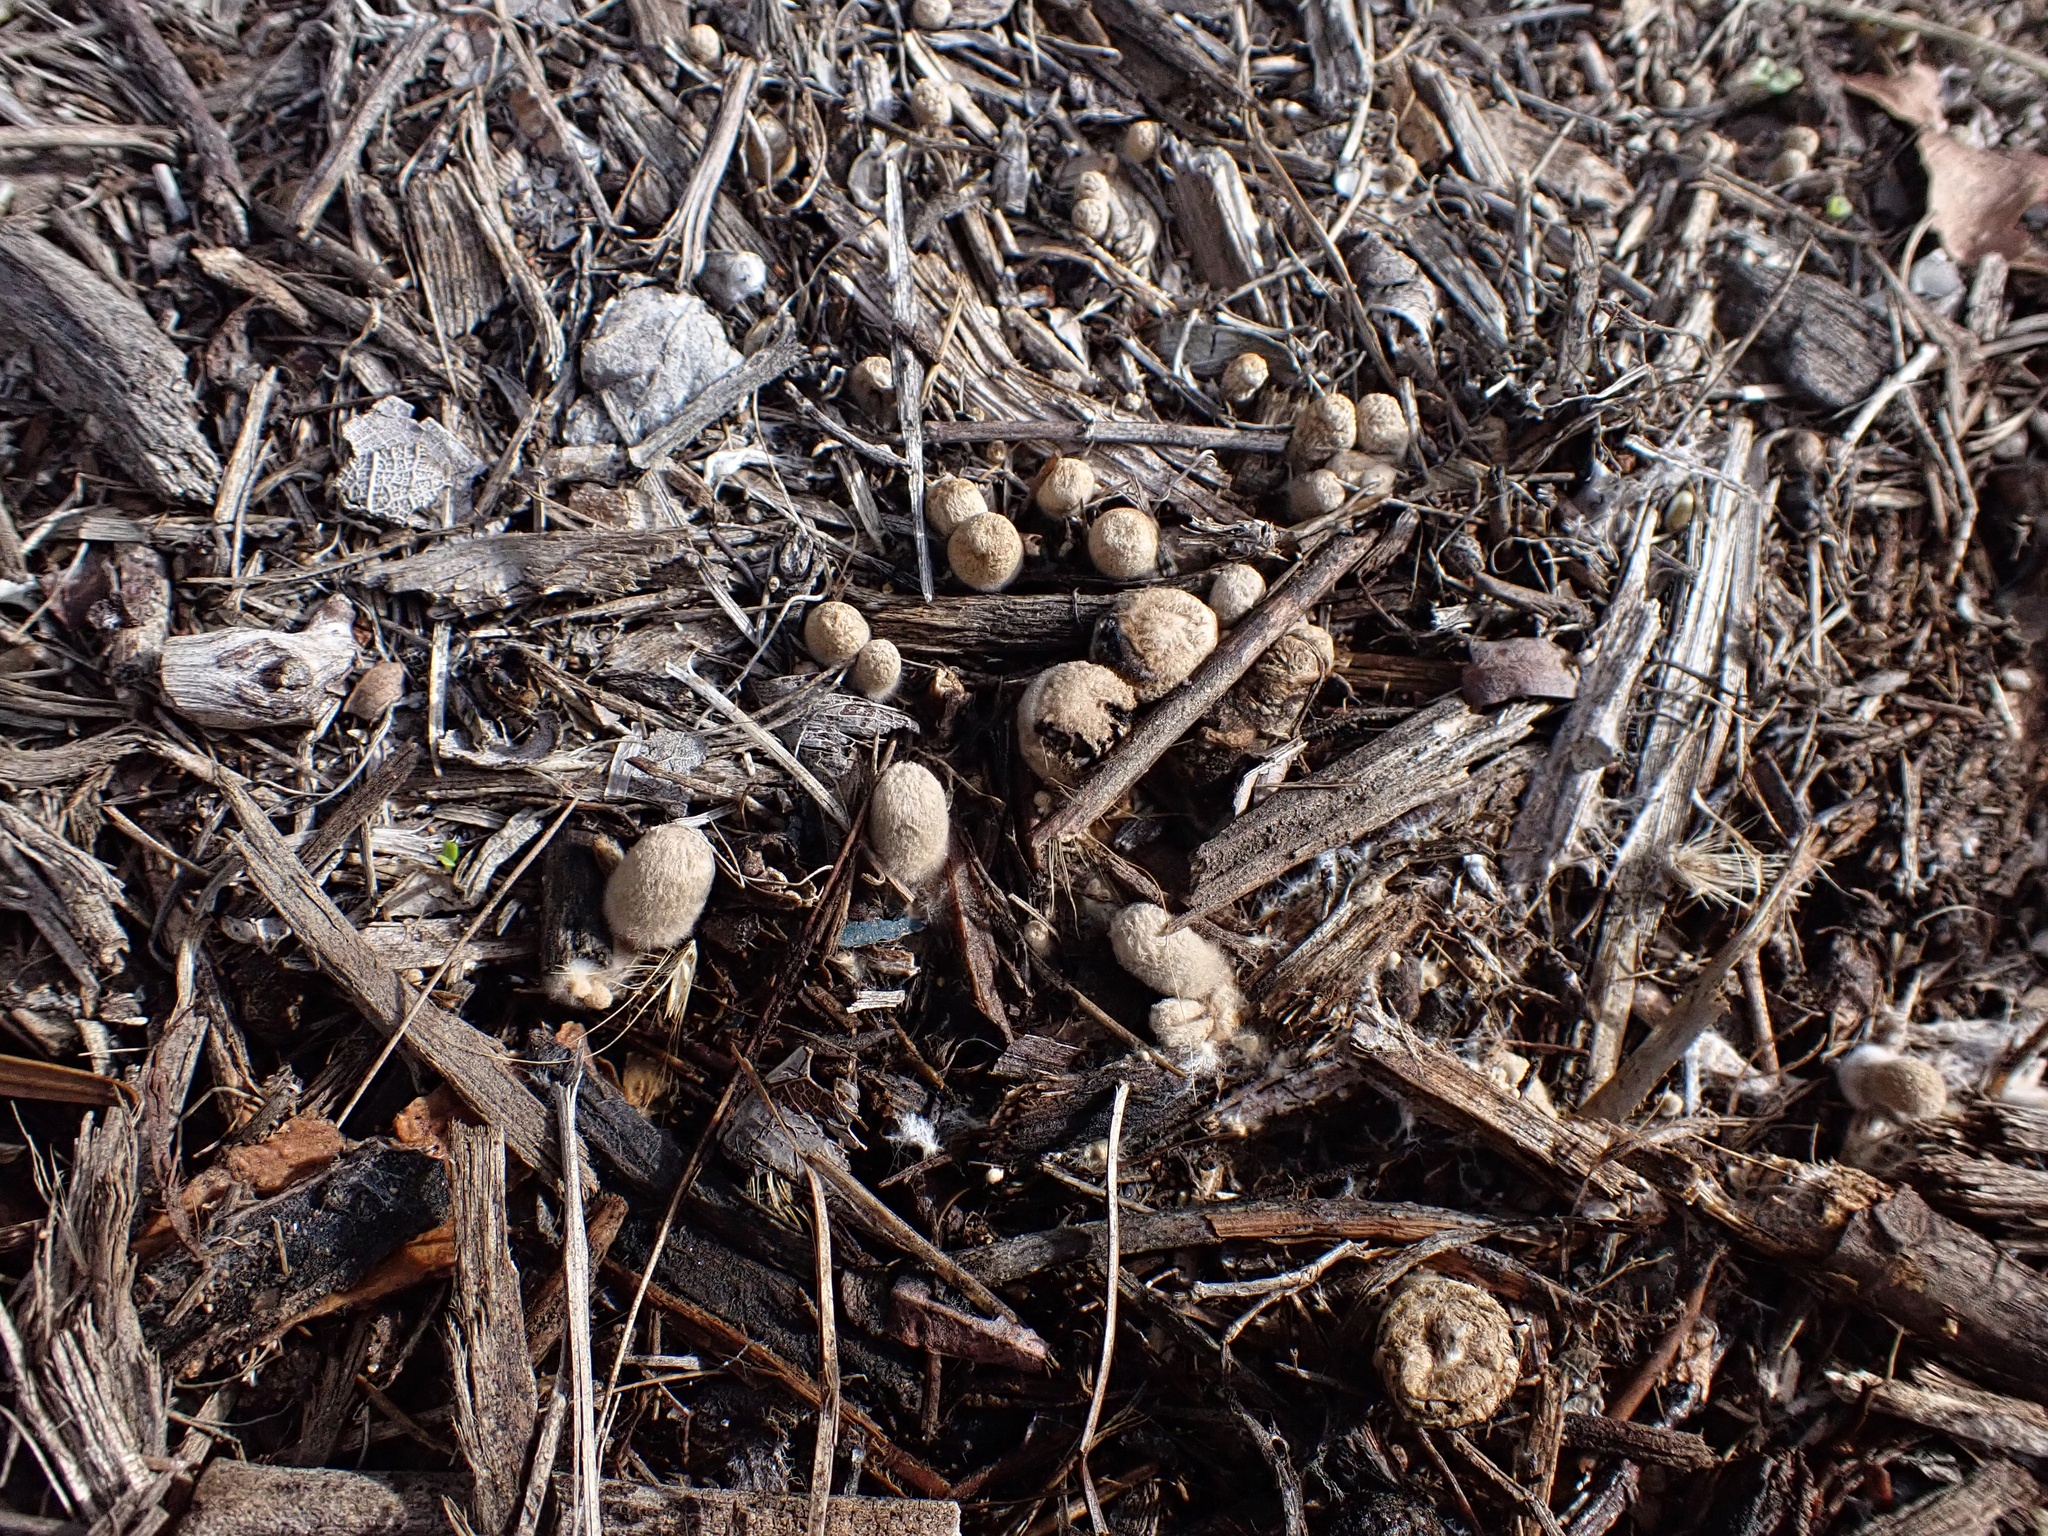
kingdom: Fungi
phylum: Basidiomycota
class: Agaricomycetes
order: Agaricales
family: Agaricaceae
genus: Nidularia
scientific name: Nidularia deformis
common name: Pea-shaped bird's nest
